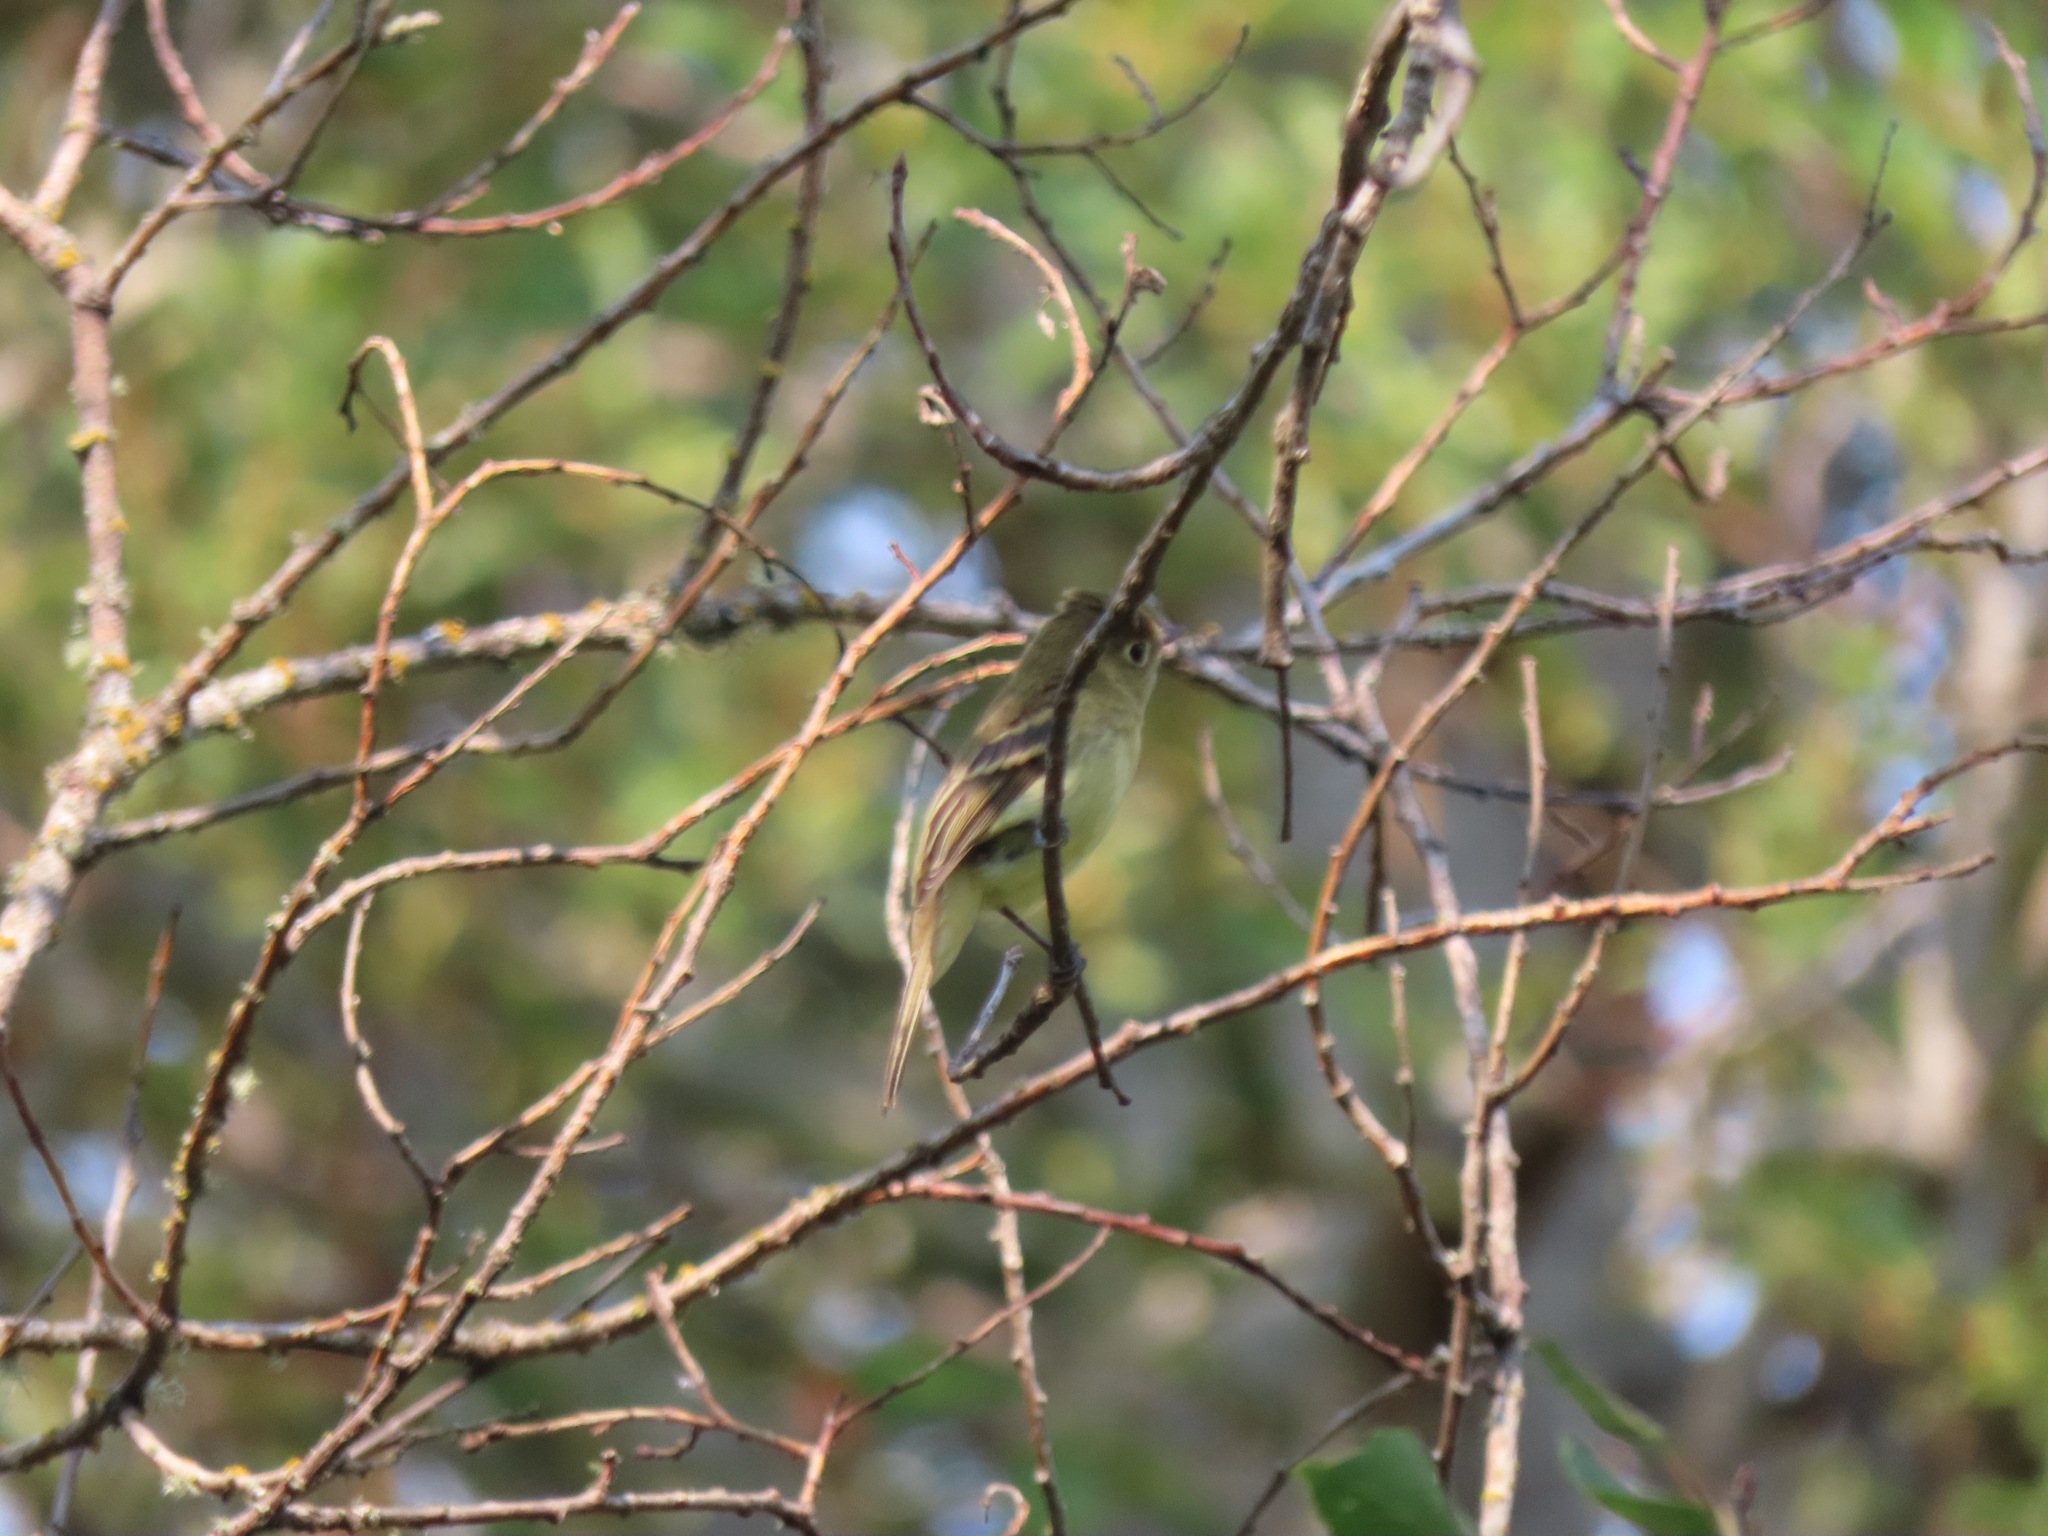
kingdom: Animalia
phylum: Chordata
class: Aves
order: Passeriformes
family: Tyrannidae
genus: Empidonax
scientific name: Empidonax difficilis
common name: Pacific-slope flycatcher
